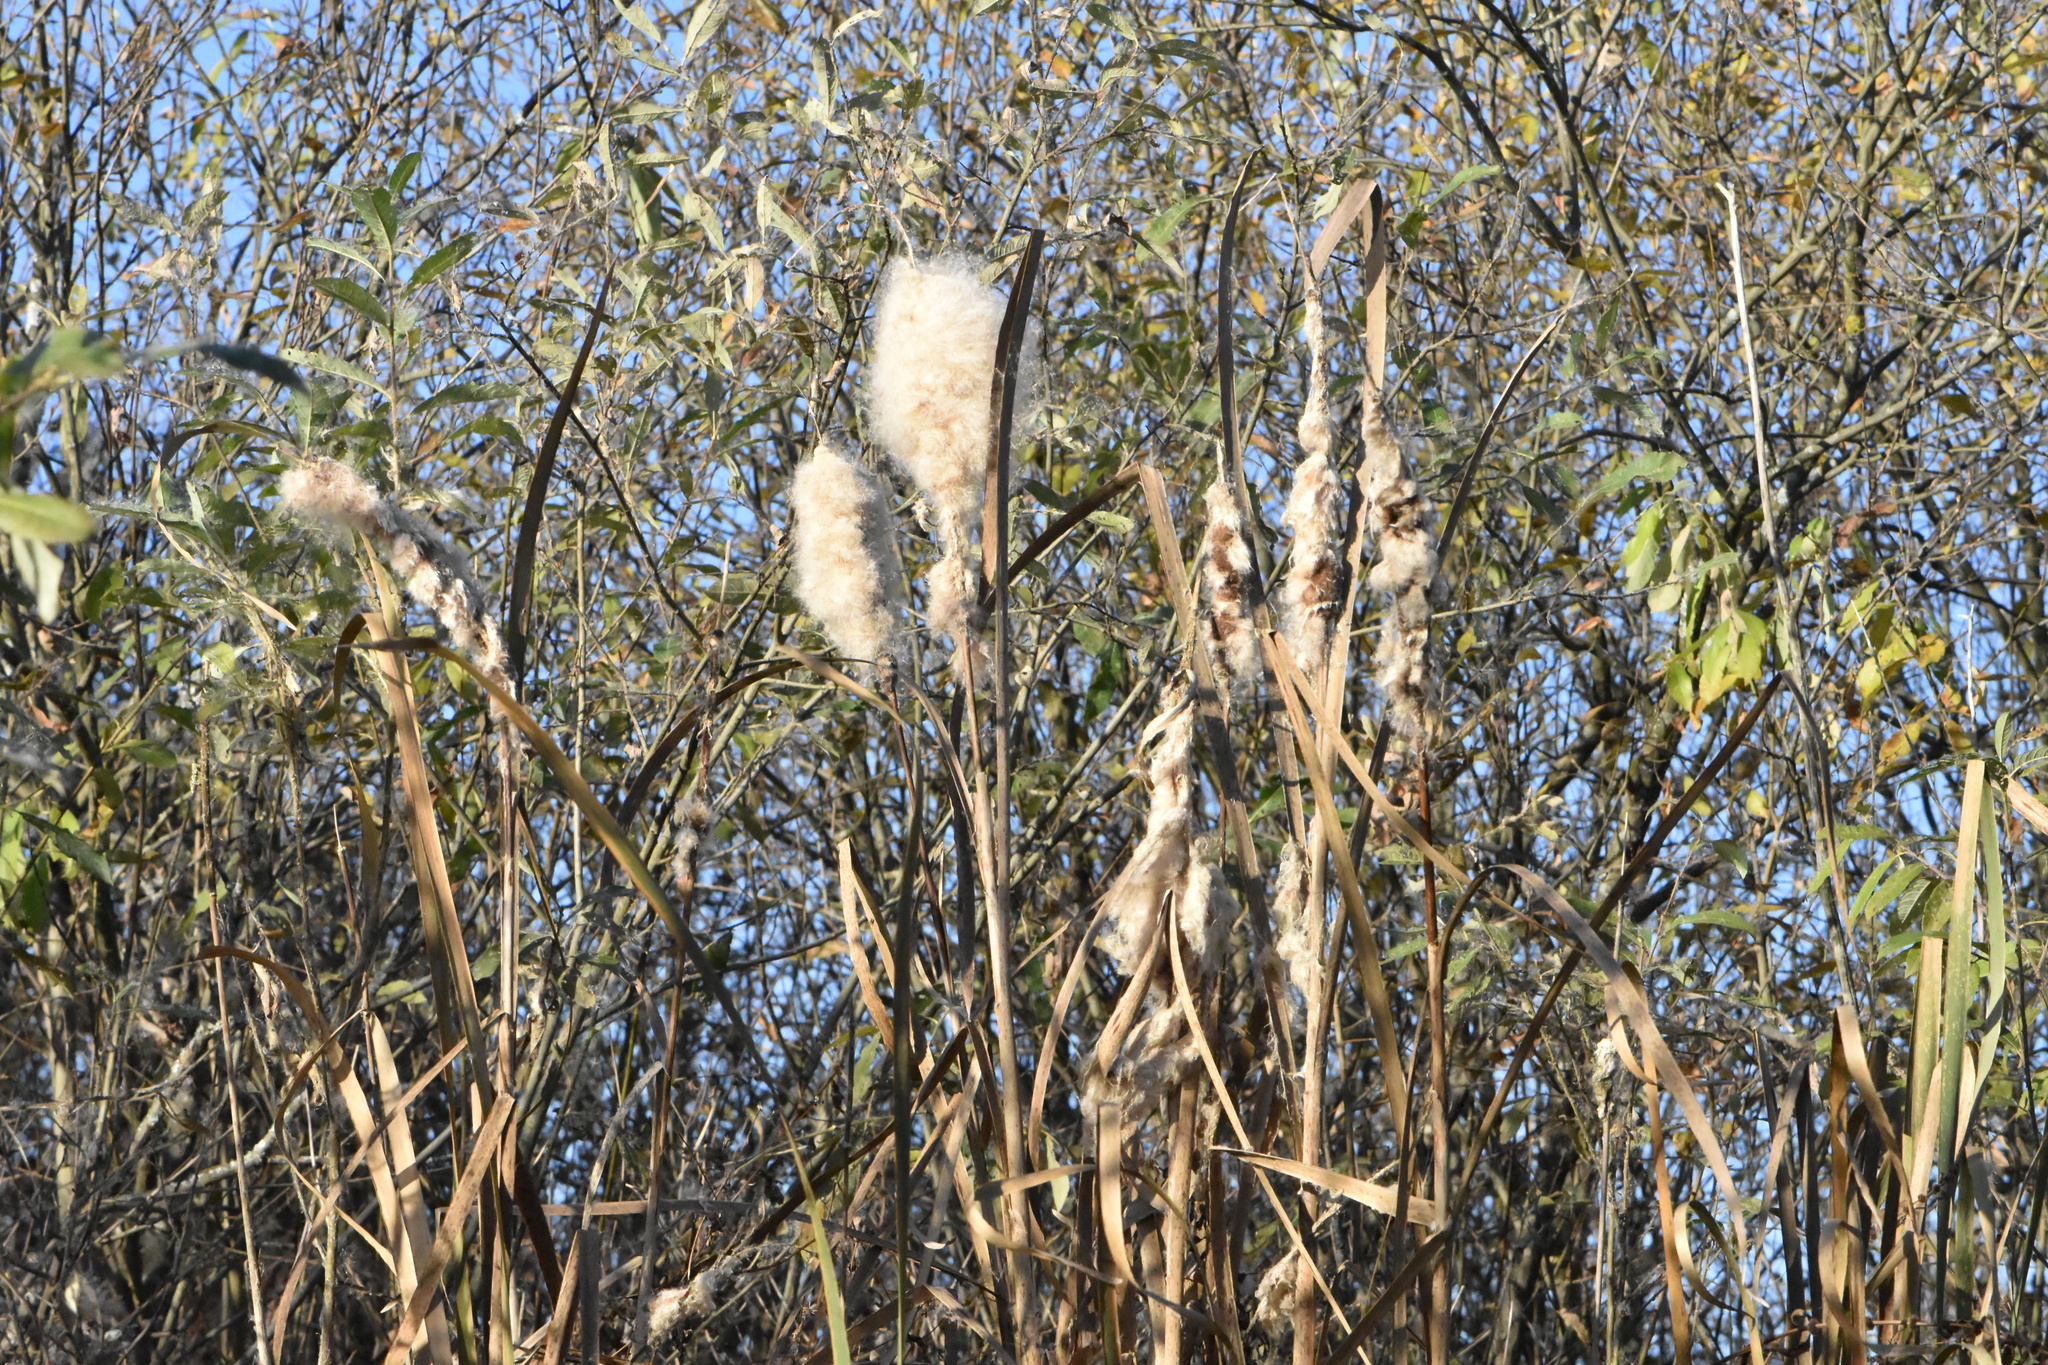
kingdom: Plantae
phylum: Tracheophyta
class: Liliopsida
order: Poales
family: Typhaceae
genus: Typha
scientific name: Typha latifolia
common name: Broadleaf cattail
